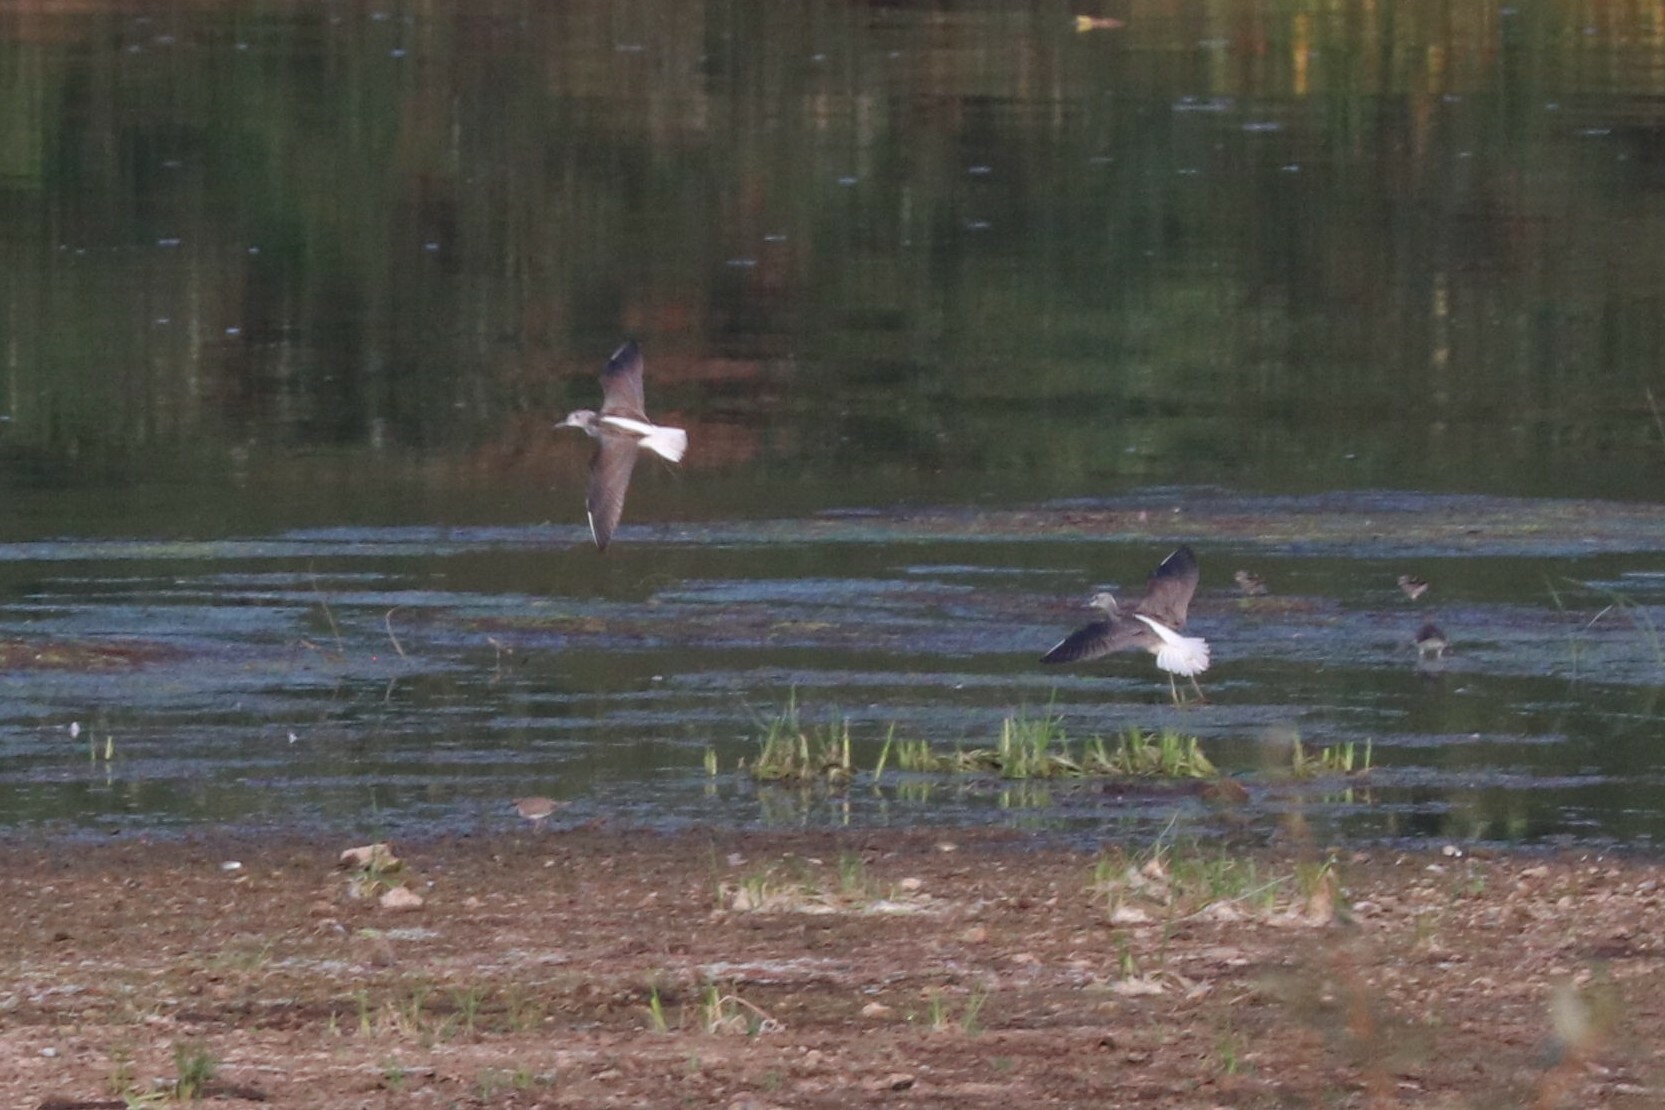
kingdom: Animalia
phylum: Chordata
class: Aves
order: Charadriiformes
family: Scolopacidae
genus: Tringa
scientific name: Tringa nebularia
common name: Common greenshank
